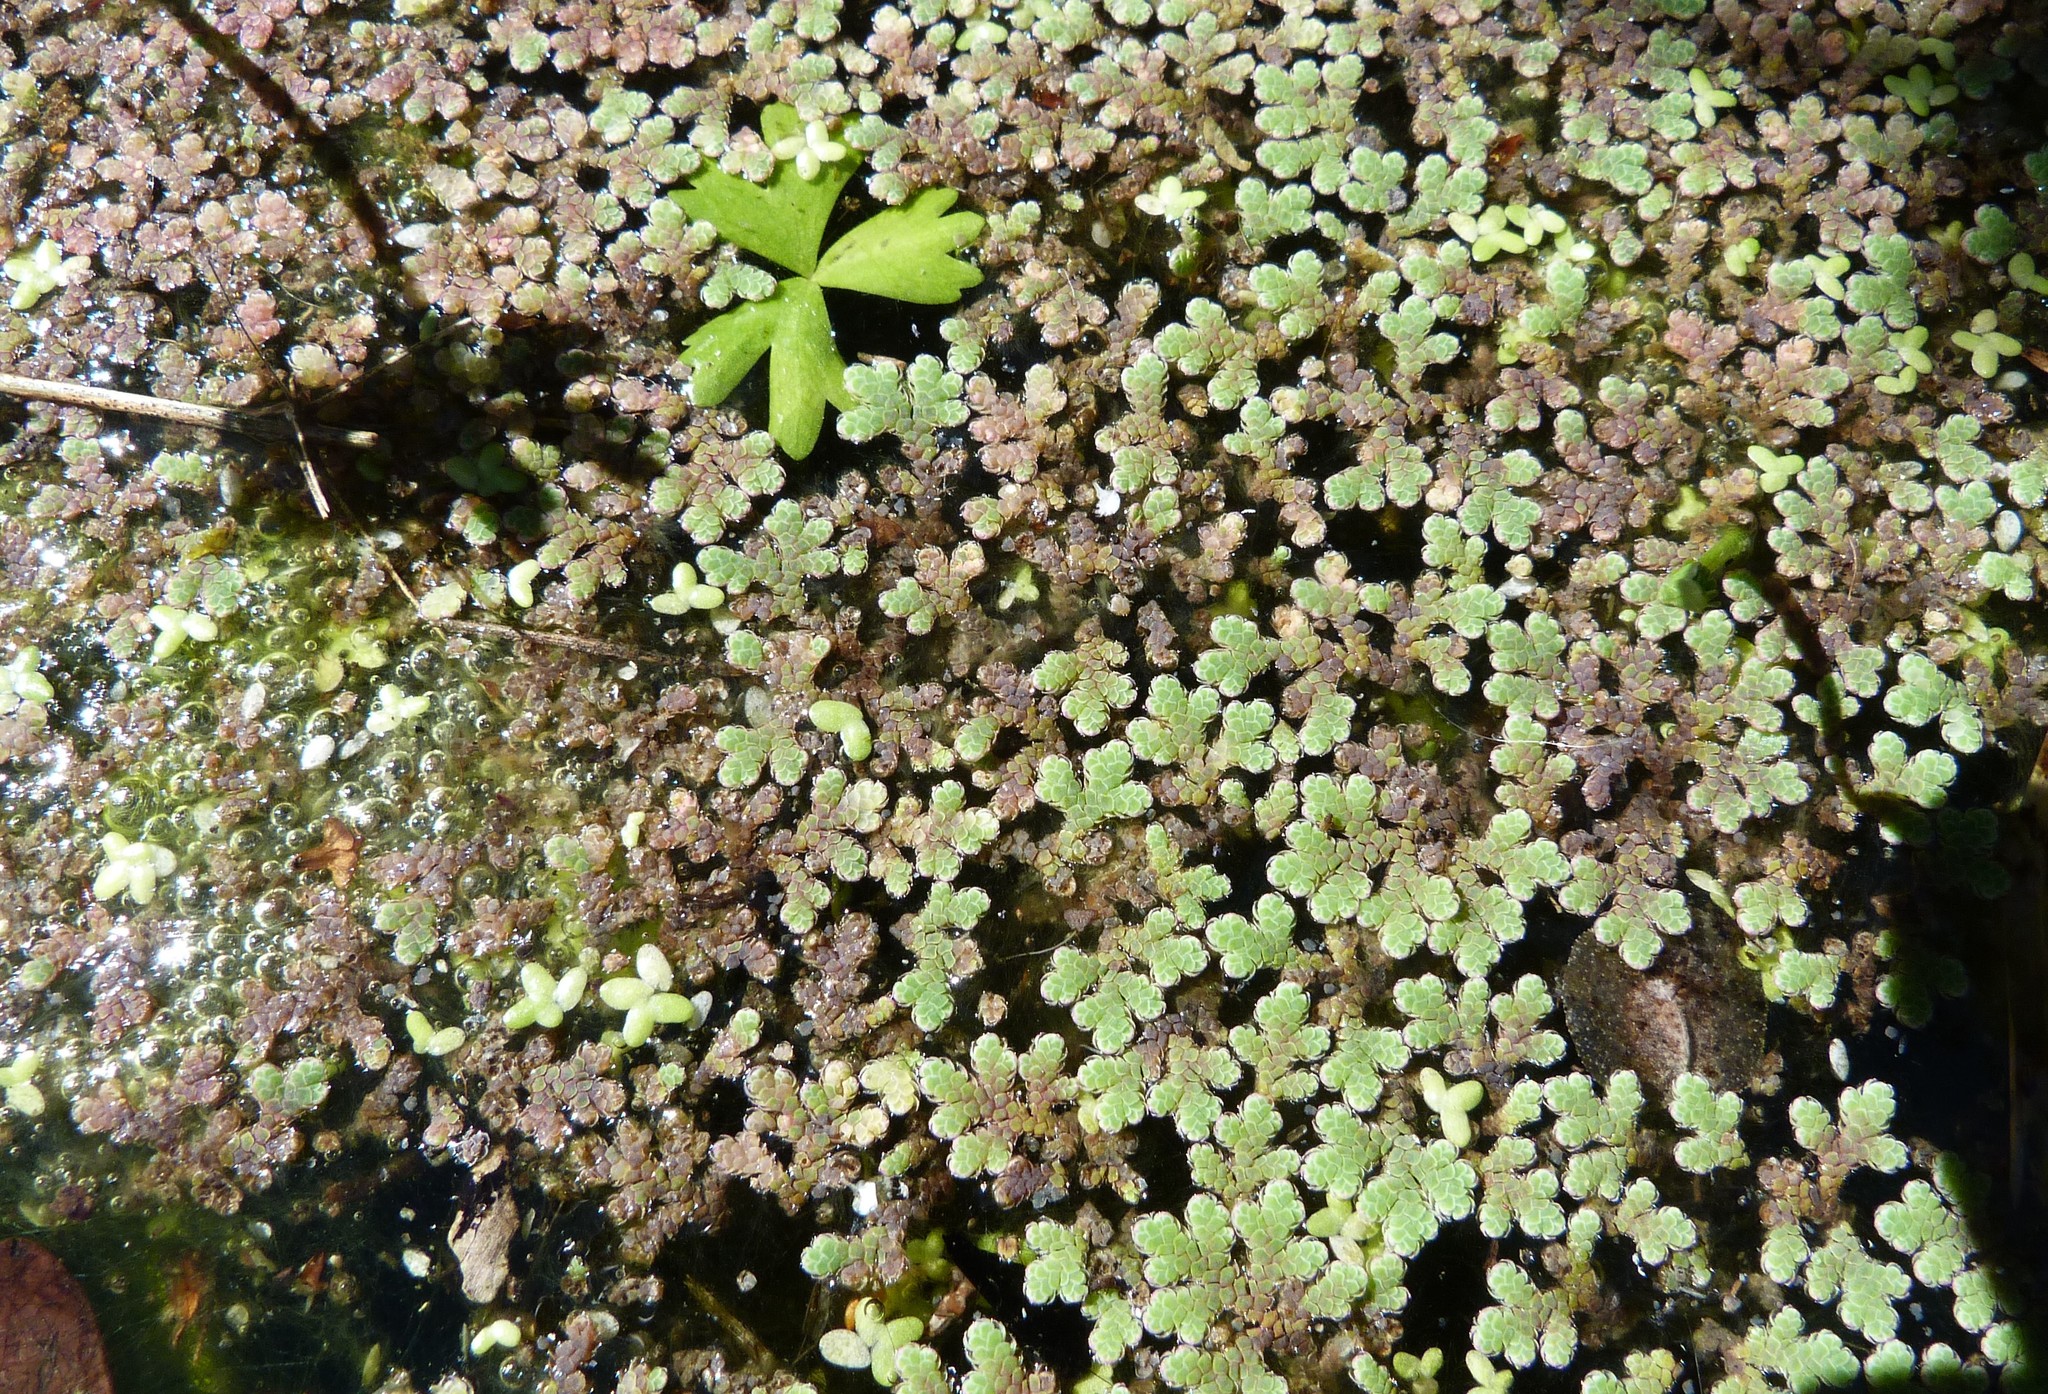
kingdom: Plantae
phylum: Tracheophyta
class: Polypodiopsida
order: Salviniales
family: Salviniaceae
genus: Azolla
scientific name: Azolla rubra
